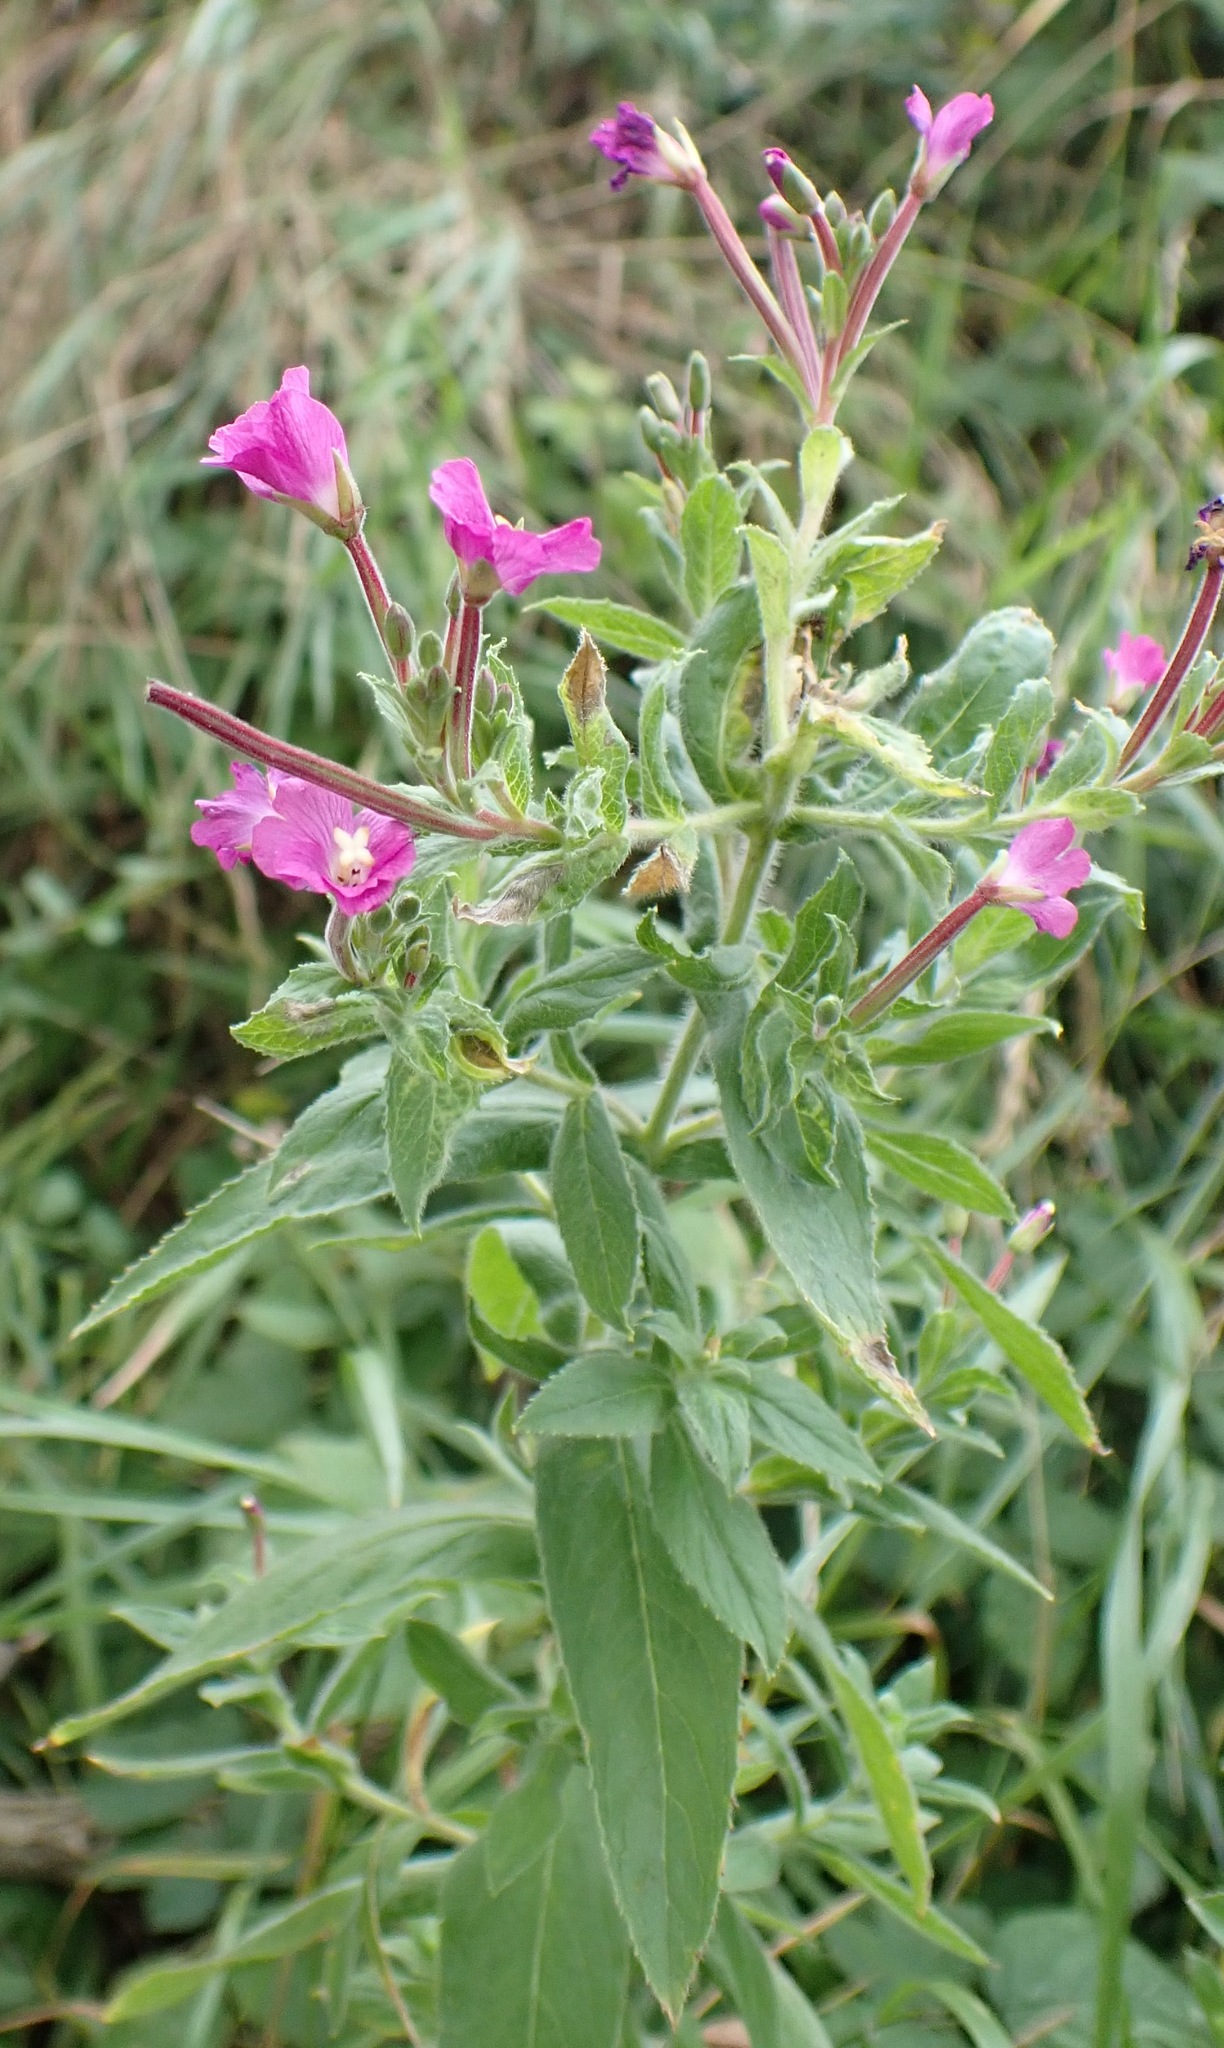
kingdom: Plantae
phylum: Tracheophyta
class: Magnoliopsida
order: Myrtales
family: Onagraceae
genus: Epilobium
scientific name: Epilobium hirsutum
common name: Great willowherb
